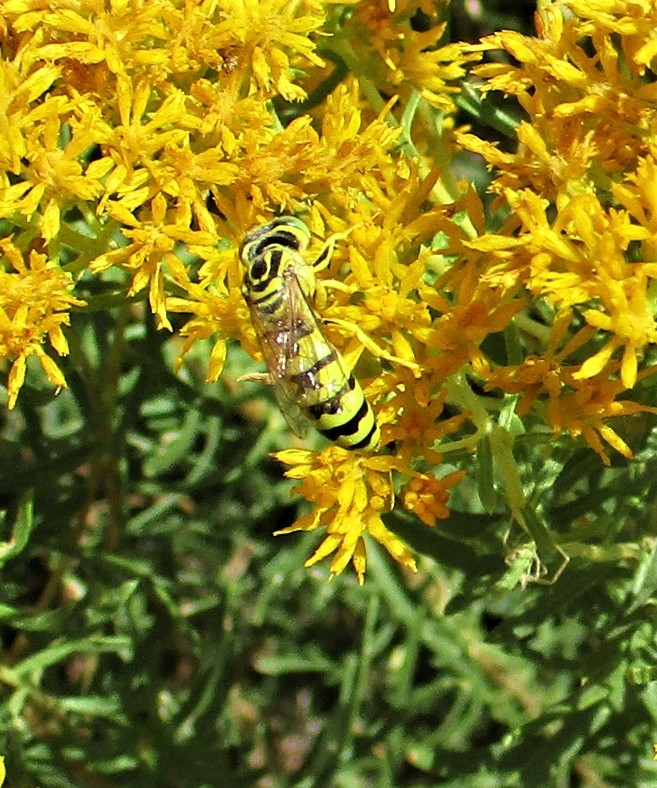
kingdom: Animalia
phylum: Arthropoda
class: Insecta
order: Hymenoptera
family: Crabronidae
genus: Stictiella
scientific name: Stictiella
